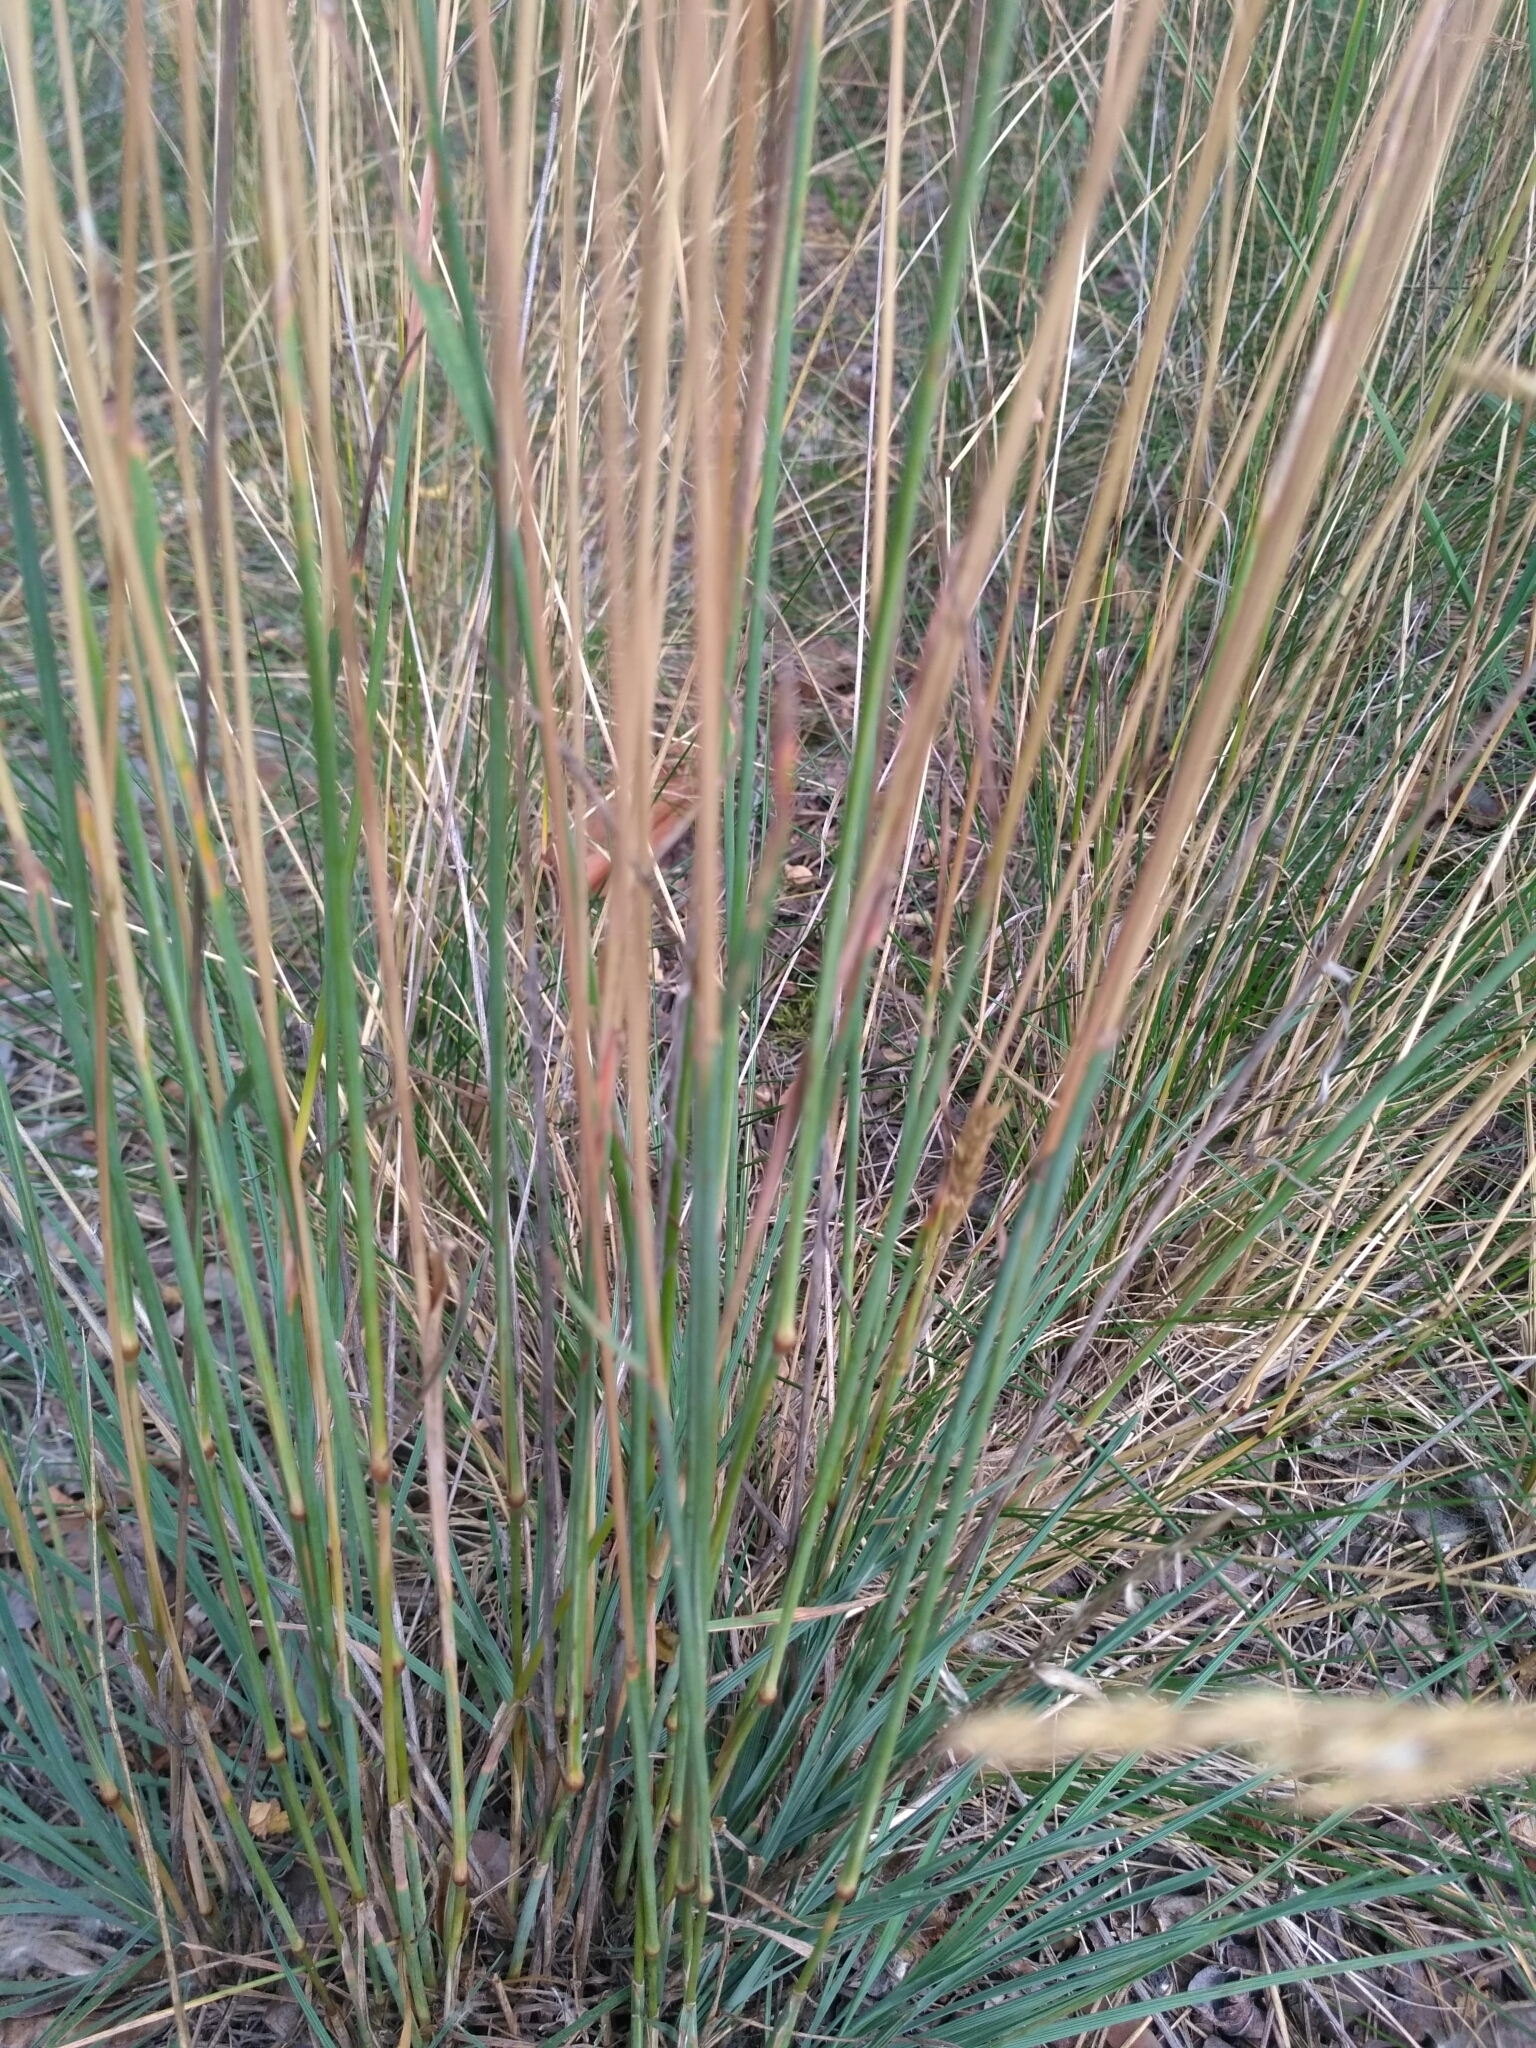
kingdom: Plantae
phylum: Tracheophyta
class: Liliopsida
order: Poales
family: Poaceae
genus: Koeleria
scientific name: Koeleria glauca
